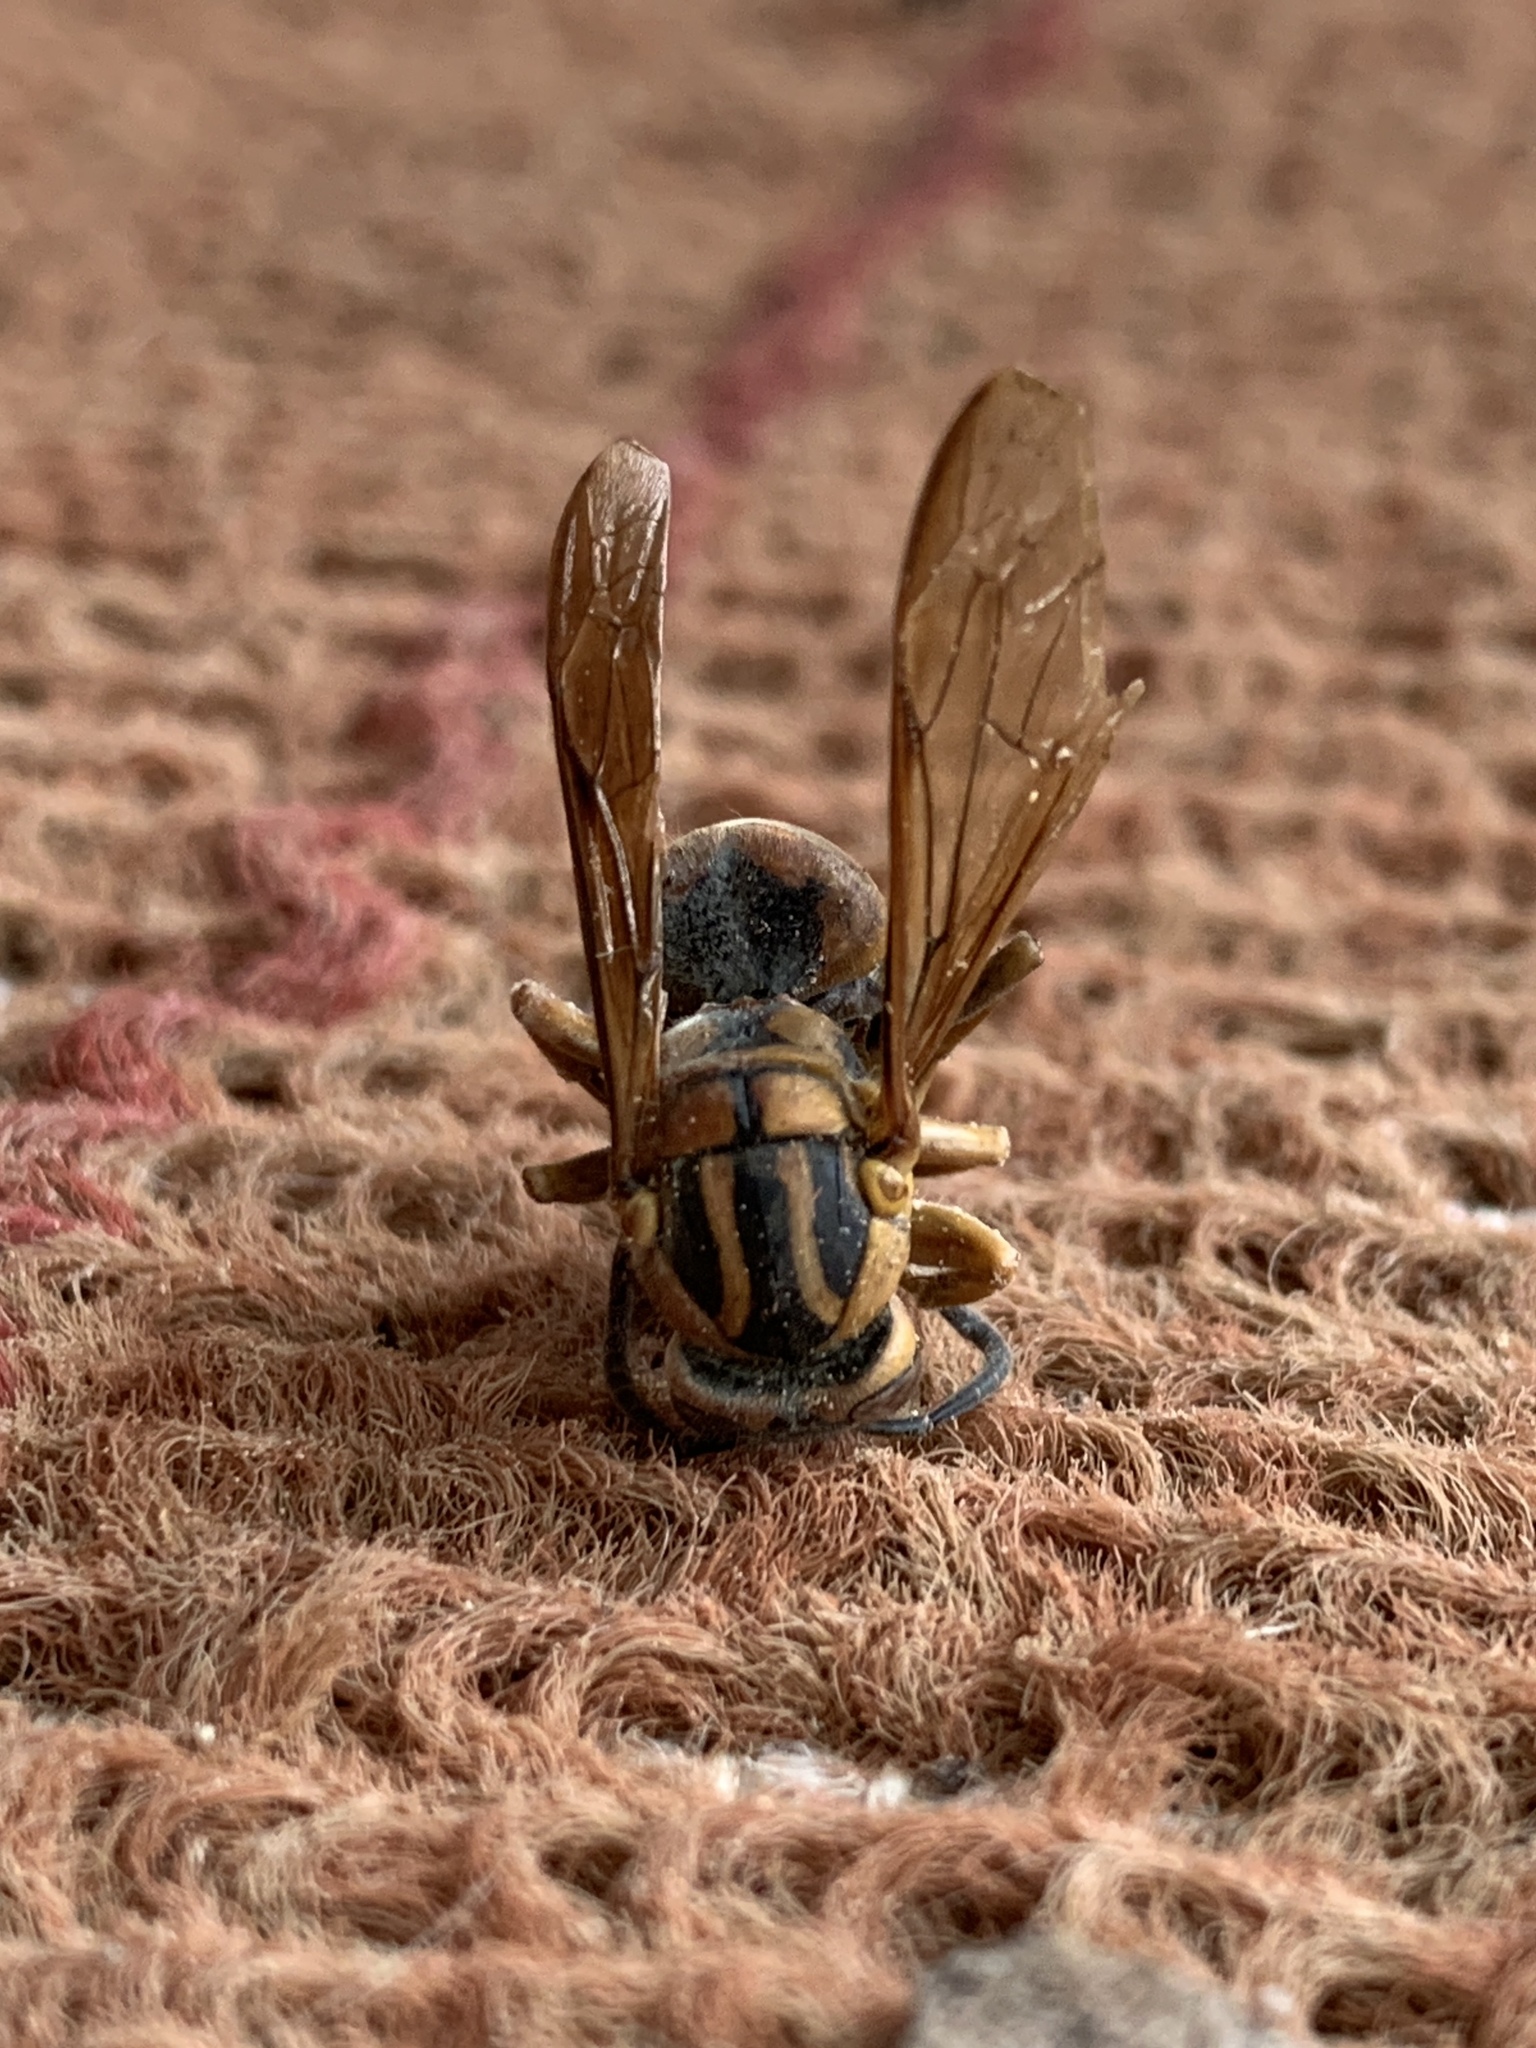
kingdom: Animalia
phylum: Arthropoda
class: Insecta
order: Hymenoptera
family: Vespidae
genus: Vespula
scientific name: Vespula squamosa
